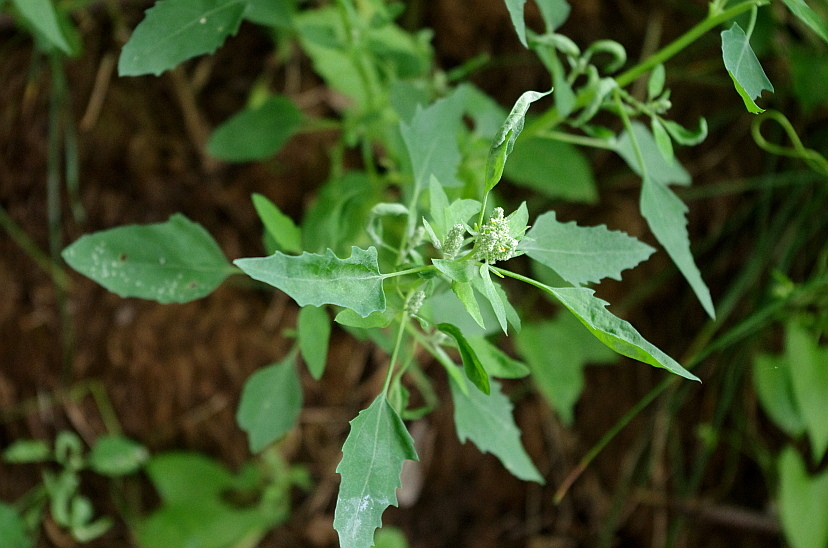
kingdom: Plantae
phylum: Tracheophyta
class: Magnoliopsida
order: Caryophyllales
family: Amaranthaceae
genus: Chenopodium
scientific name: Chenopodium album
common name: Fat-hen
